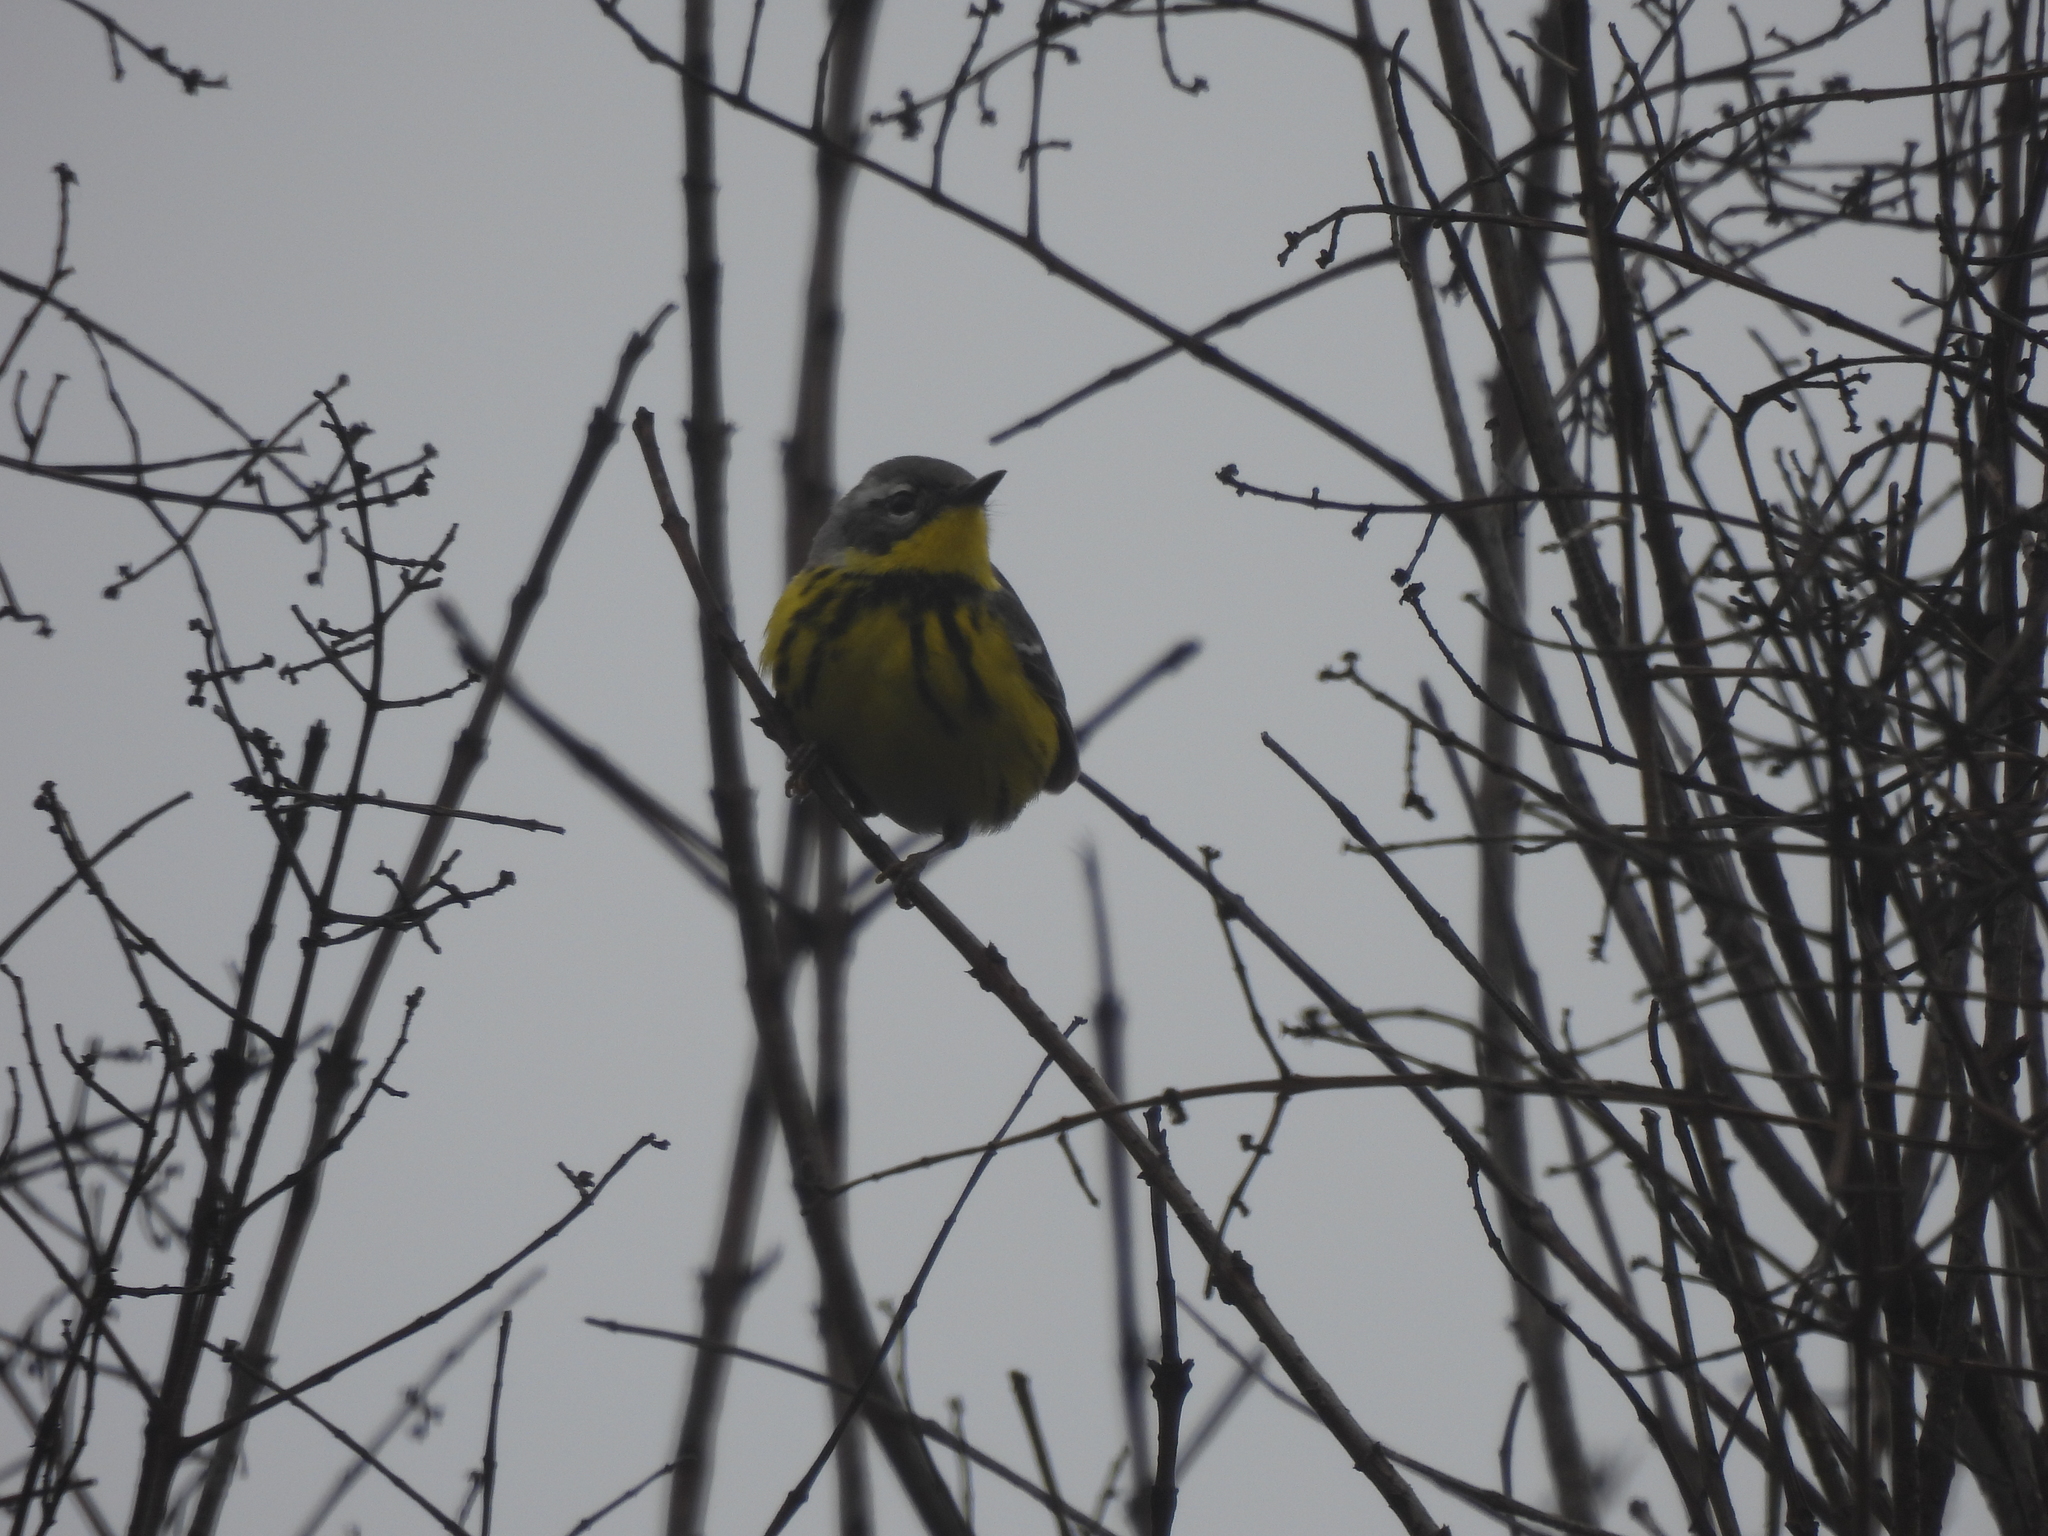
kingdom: Animalia
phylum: Chordata
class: Aves
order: Passeriformes
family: Parulidae
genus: Setophaga
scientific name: Setophaga magnolia
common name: Magnolia warbler
